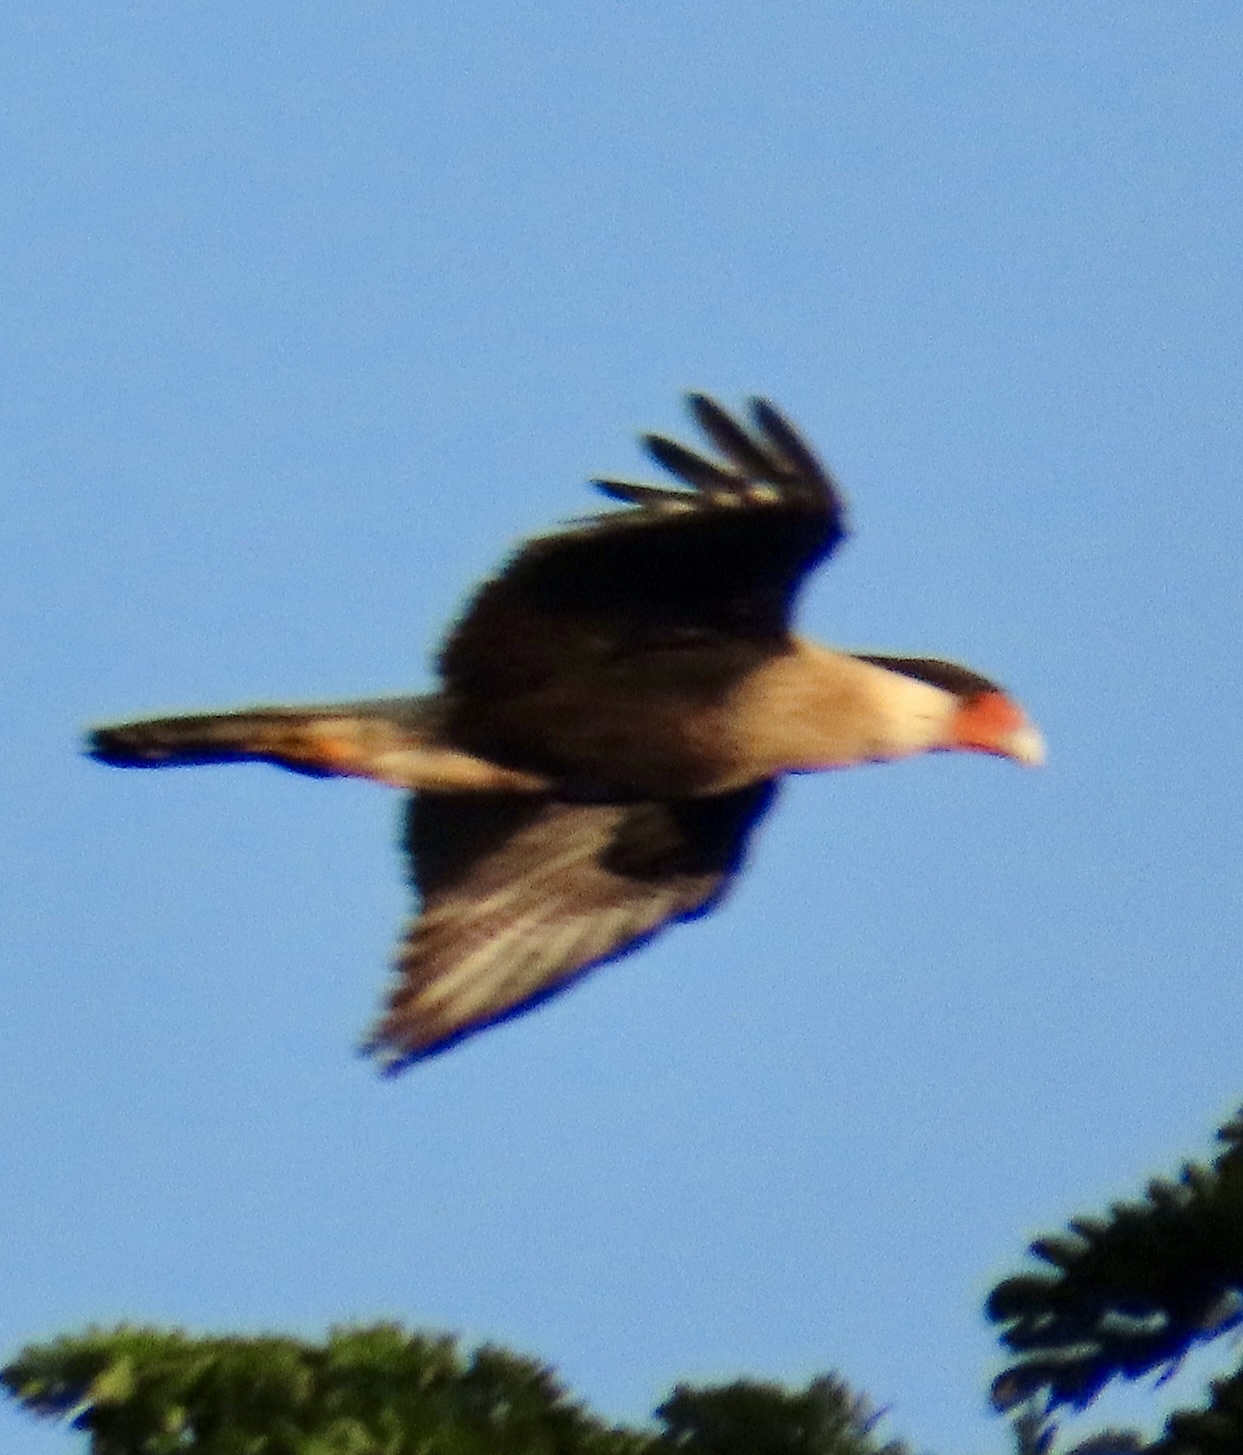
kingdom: Animalia
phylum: Chordata
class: Aves
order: Falconiformes
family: Falconidae
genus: Caracara
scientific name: Caracara plancus
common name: Southern caracara
